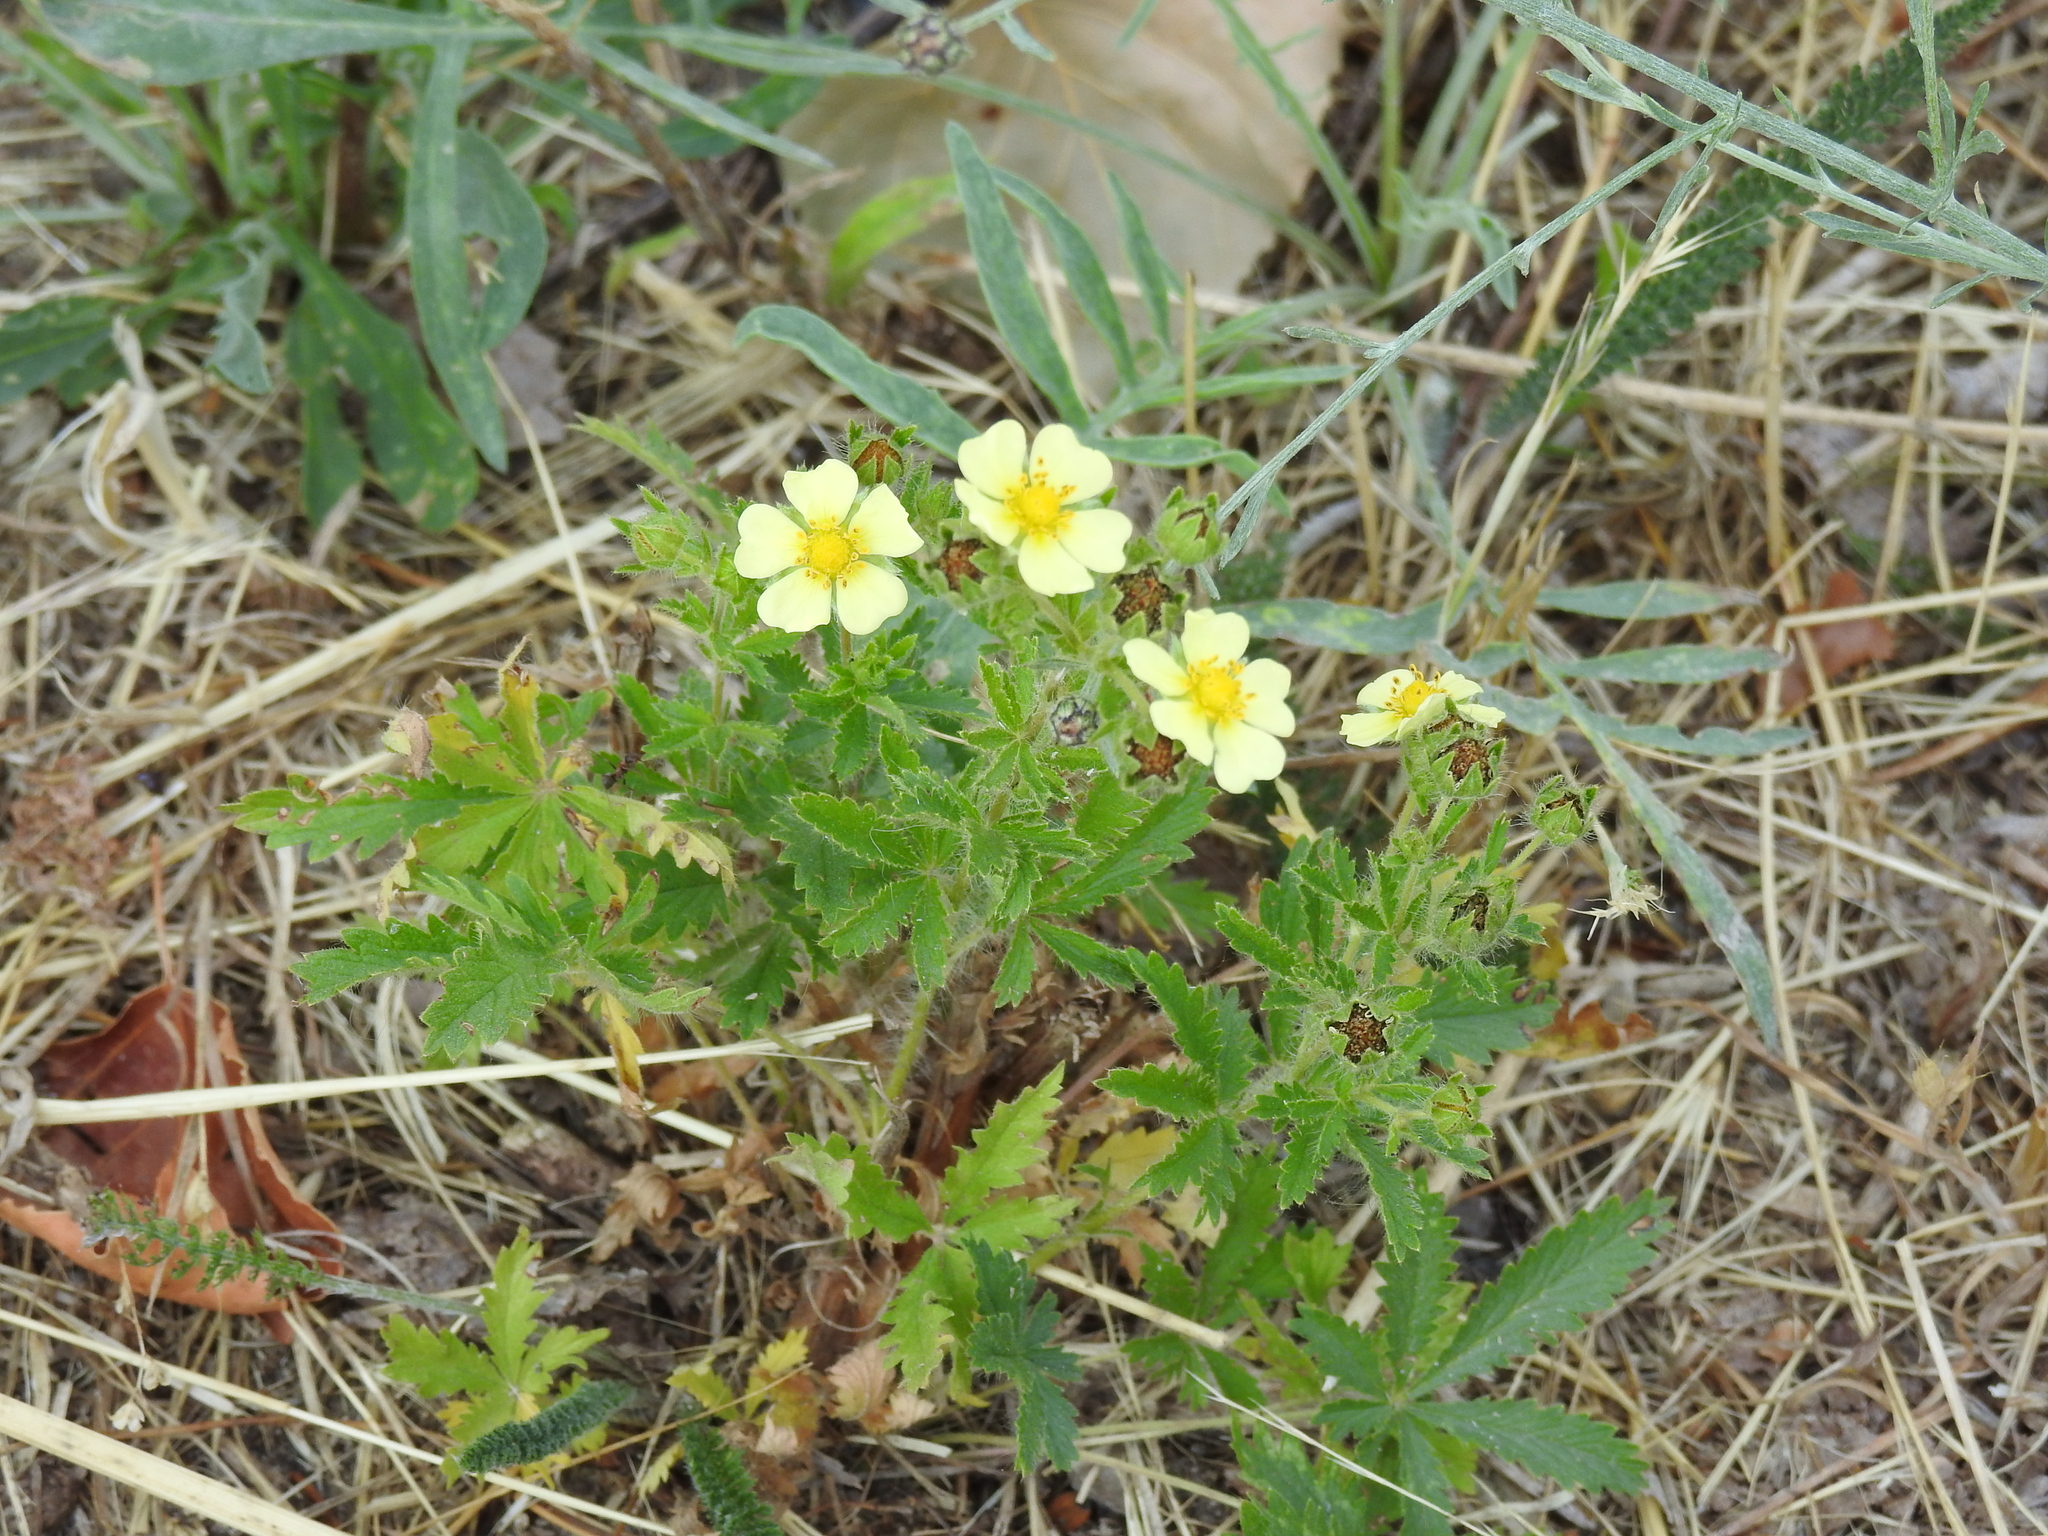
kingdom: Plantae
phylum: Tracheophyta
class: Magnoliopsida
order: Rosales
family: Rosaceae
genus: Potentilla
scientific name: Potentilla recta
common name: Sulphur cinquefoil
